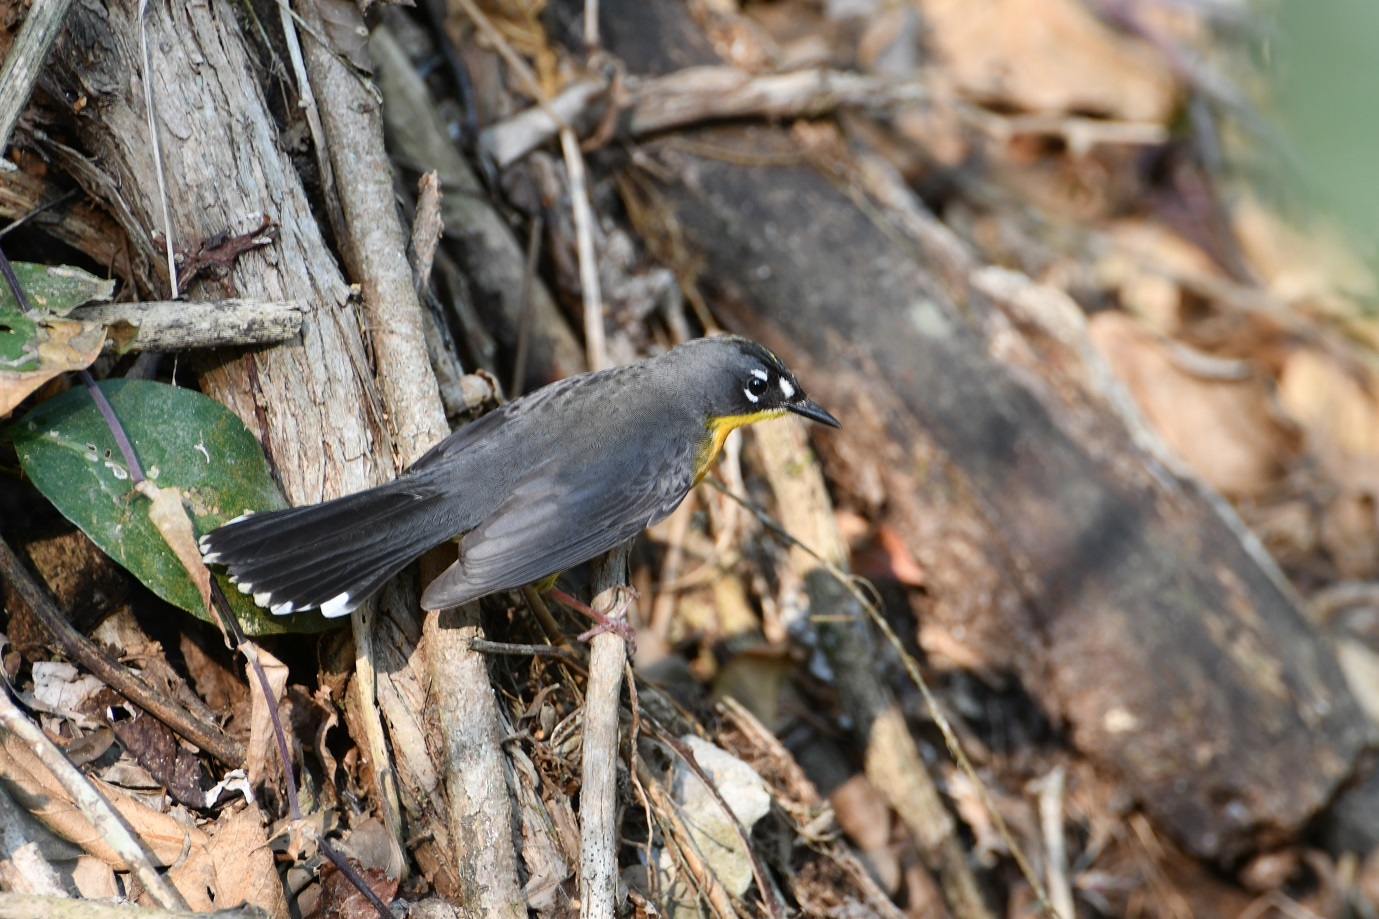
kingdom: Animalia
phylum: Chordata
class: Aves
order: Passeriformes
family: Parulidae
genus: Basileuterus
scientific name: Basileuterus lachrymosus
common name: Fan-tailed warbler
